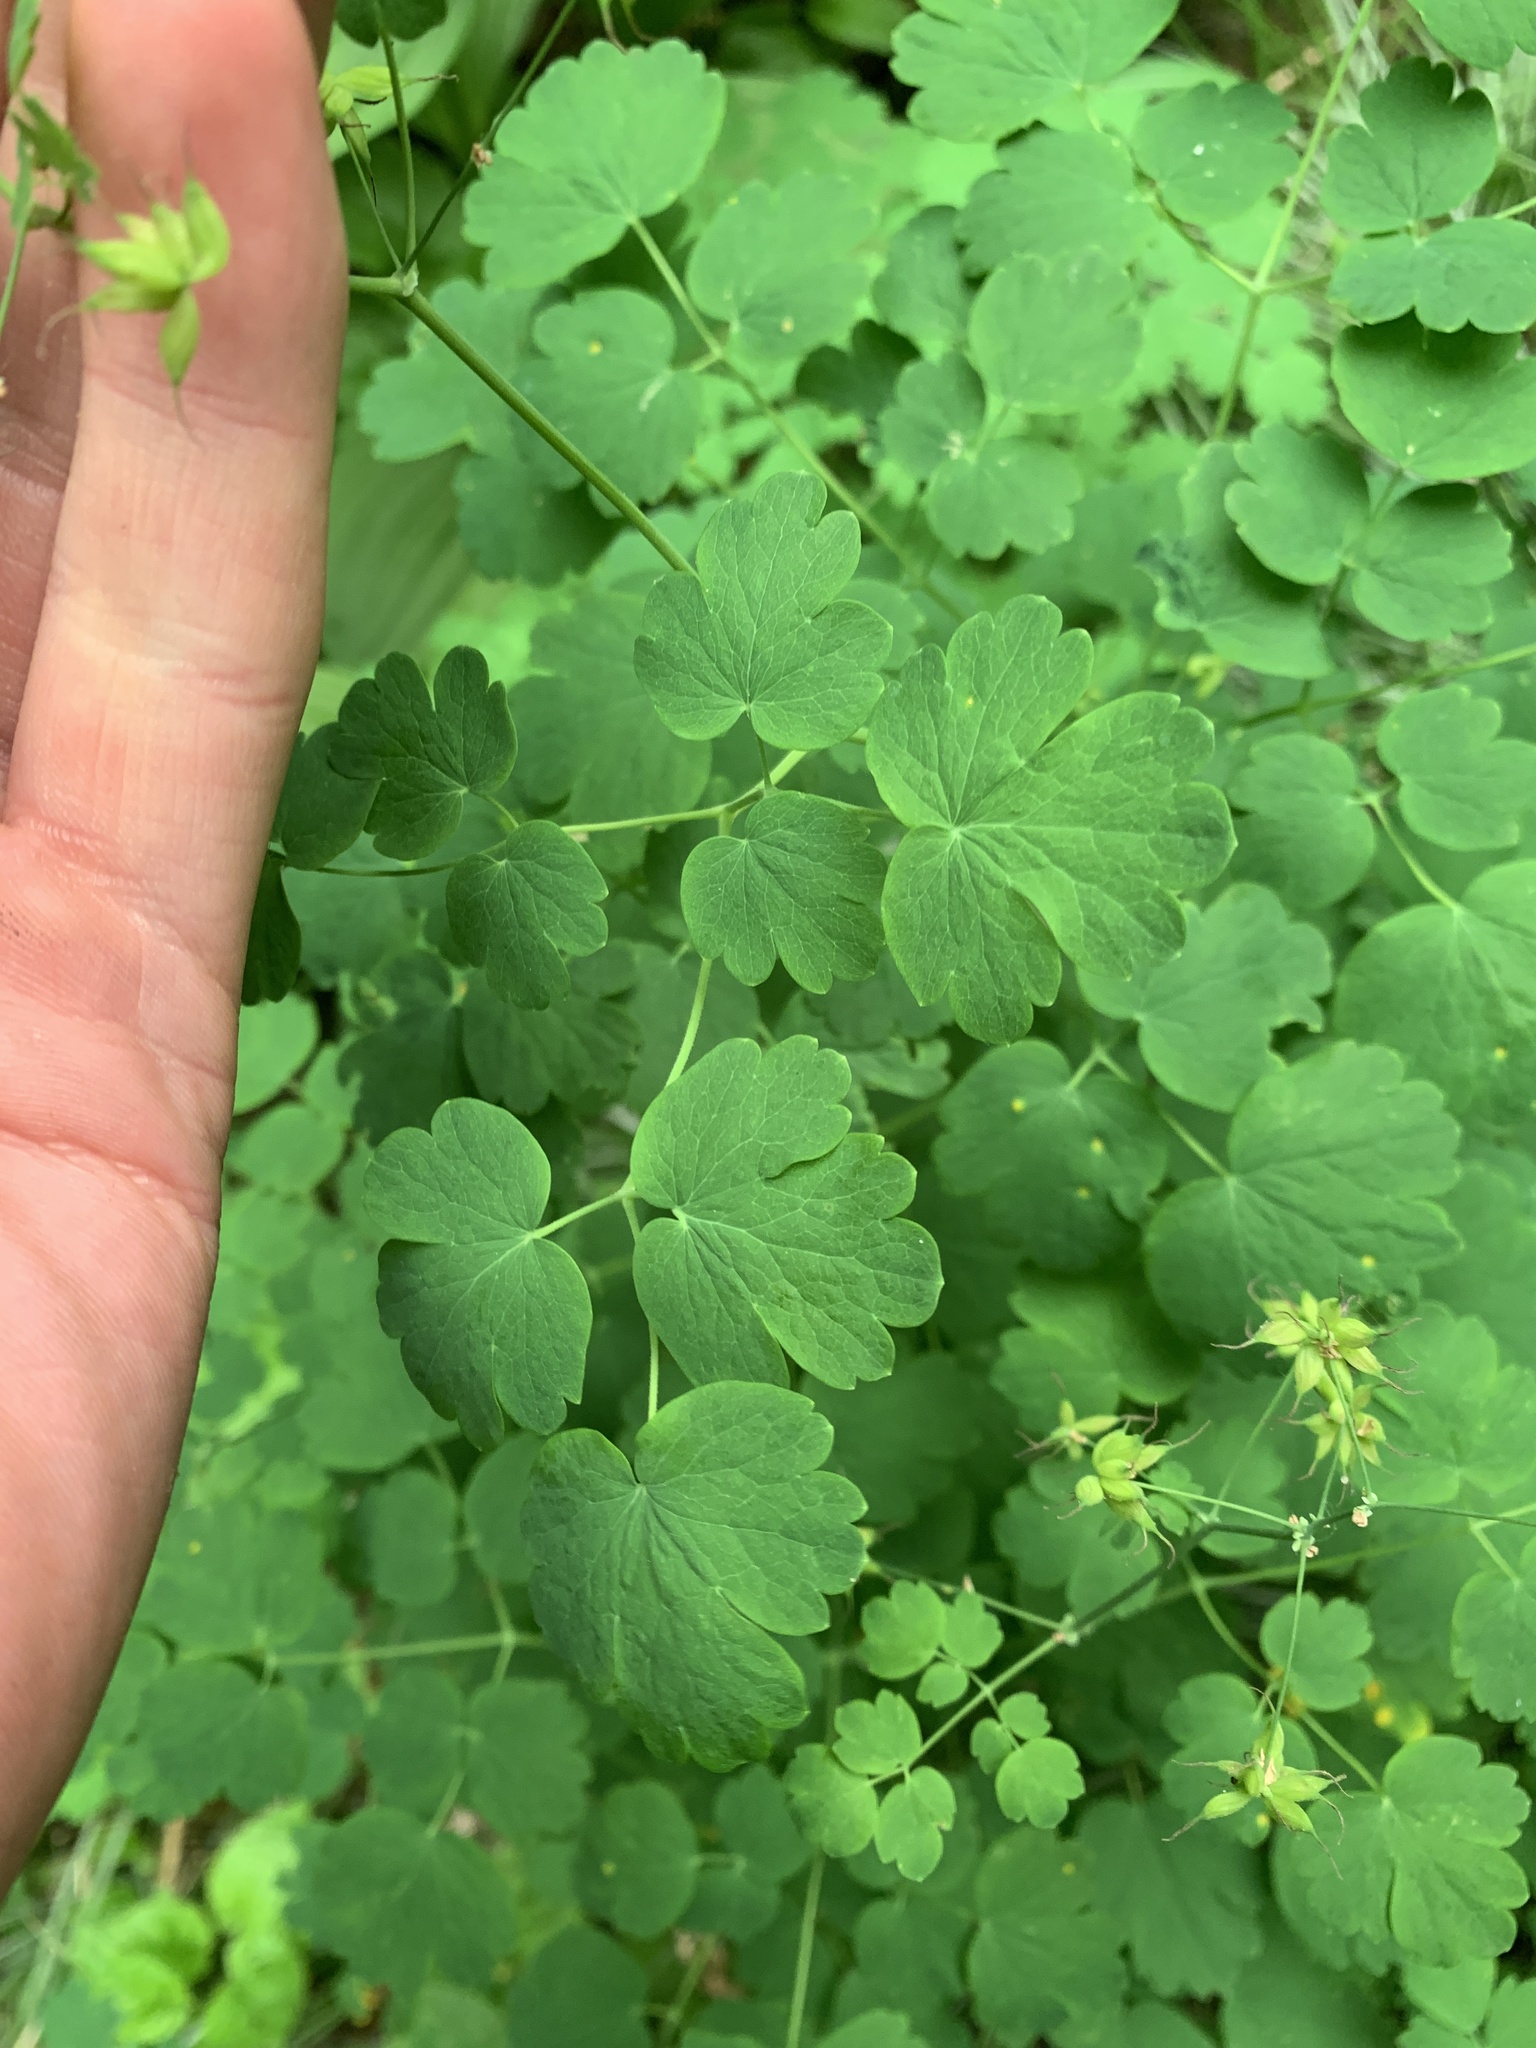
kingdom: Plantae
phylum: Tracheophyta
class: Magnoliopsida
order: Ranunculales
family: Ranunculaceae
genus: Thalictrum
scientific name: Thalictrum occidentale
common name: Western meadow-rue
